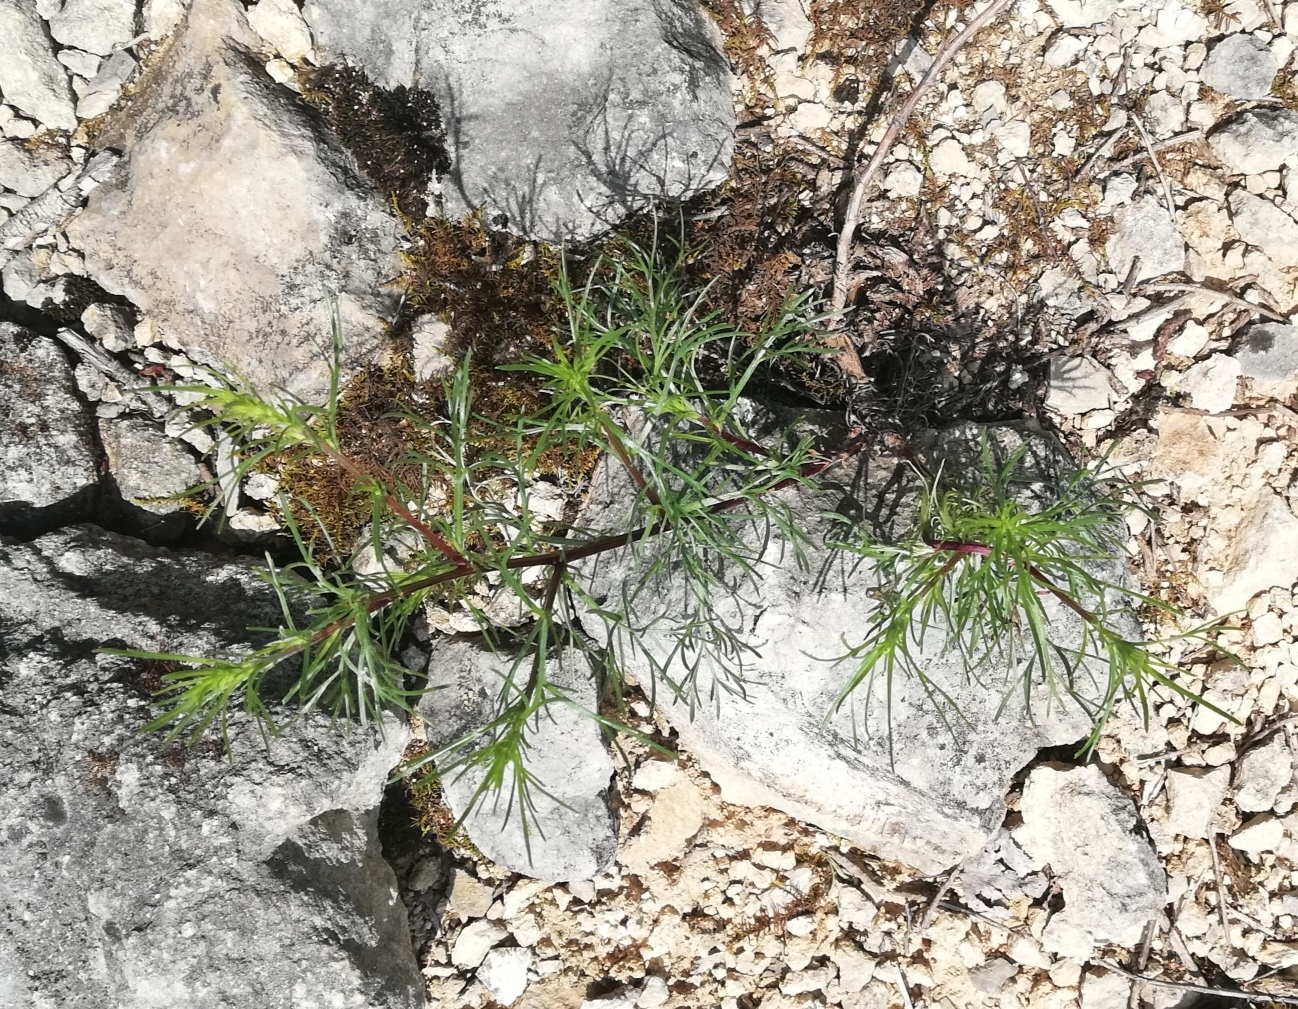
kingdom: Plantae
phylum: Tracheophyta
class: Magnoliopsida
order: Asterales
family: Asteraceae
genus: Artemisia
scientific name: Artemisia campestris
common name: Field wormwood
